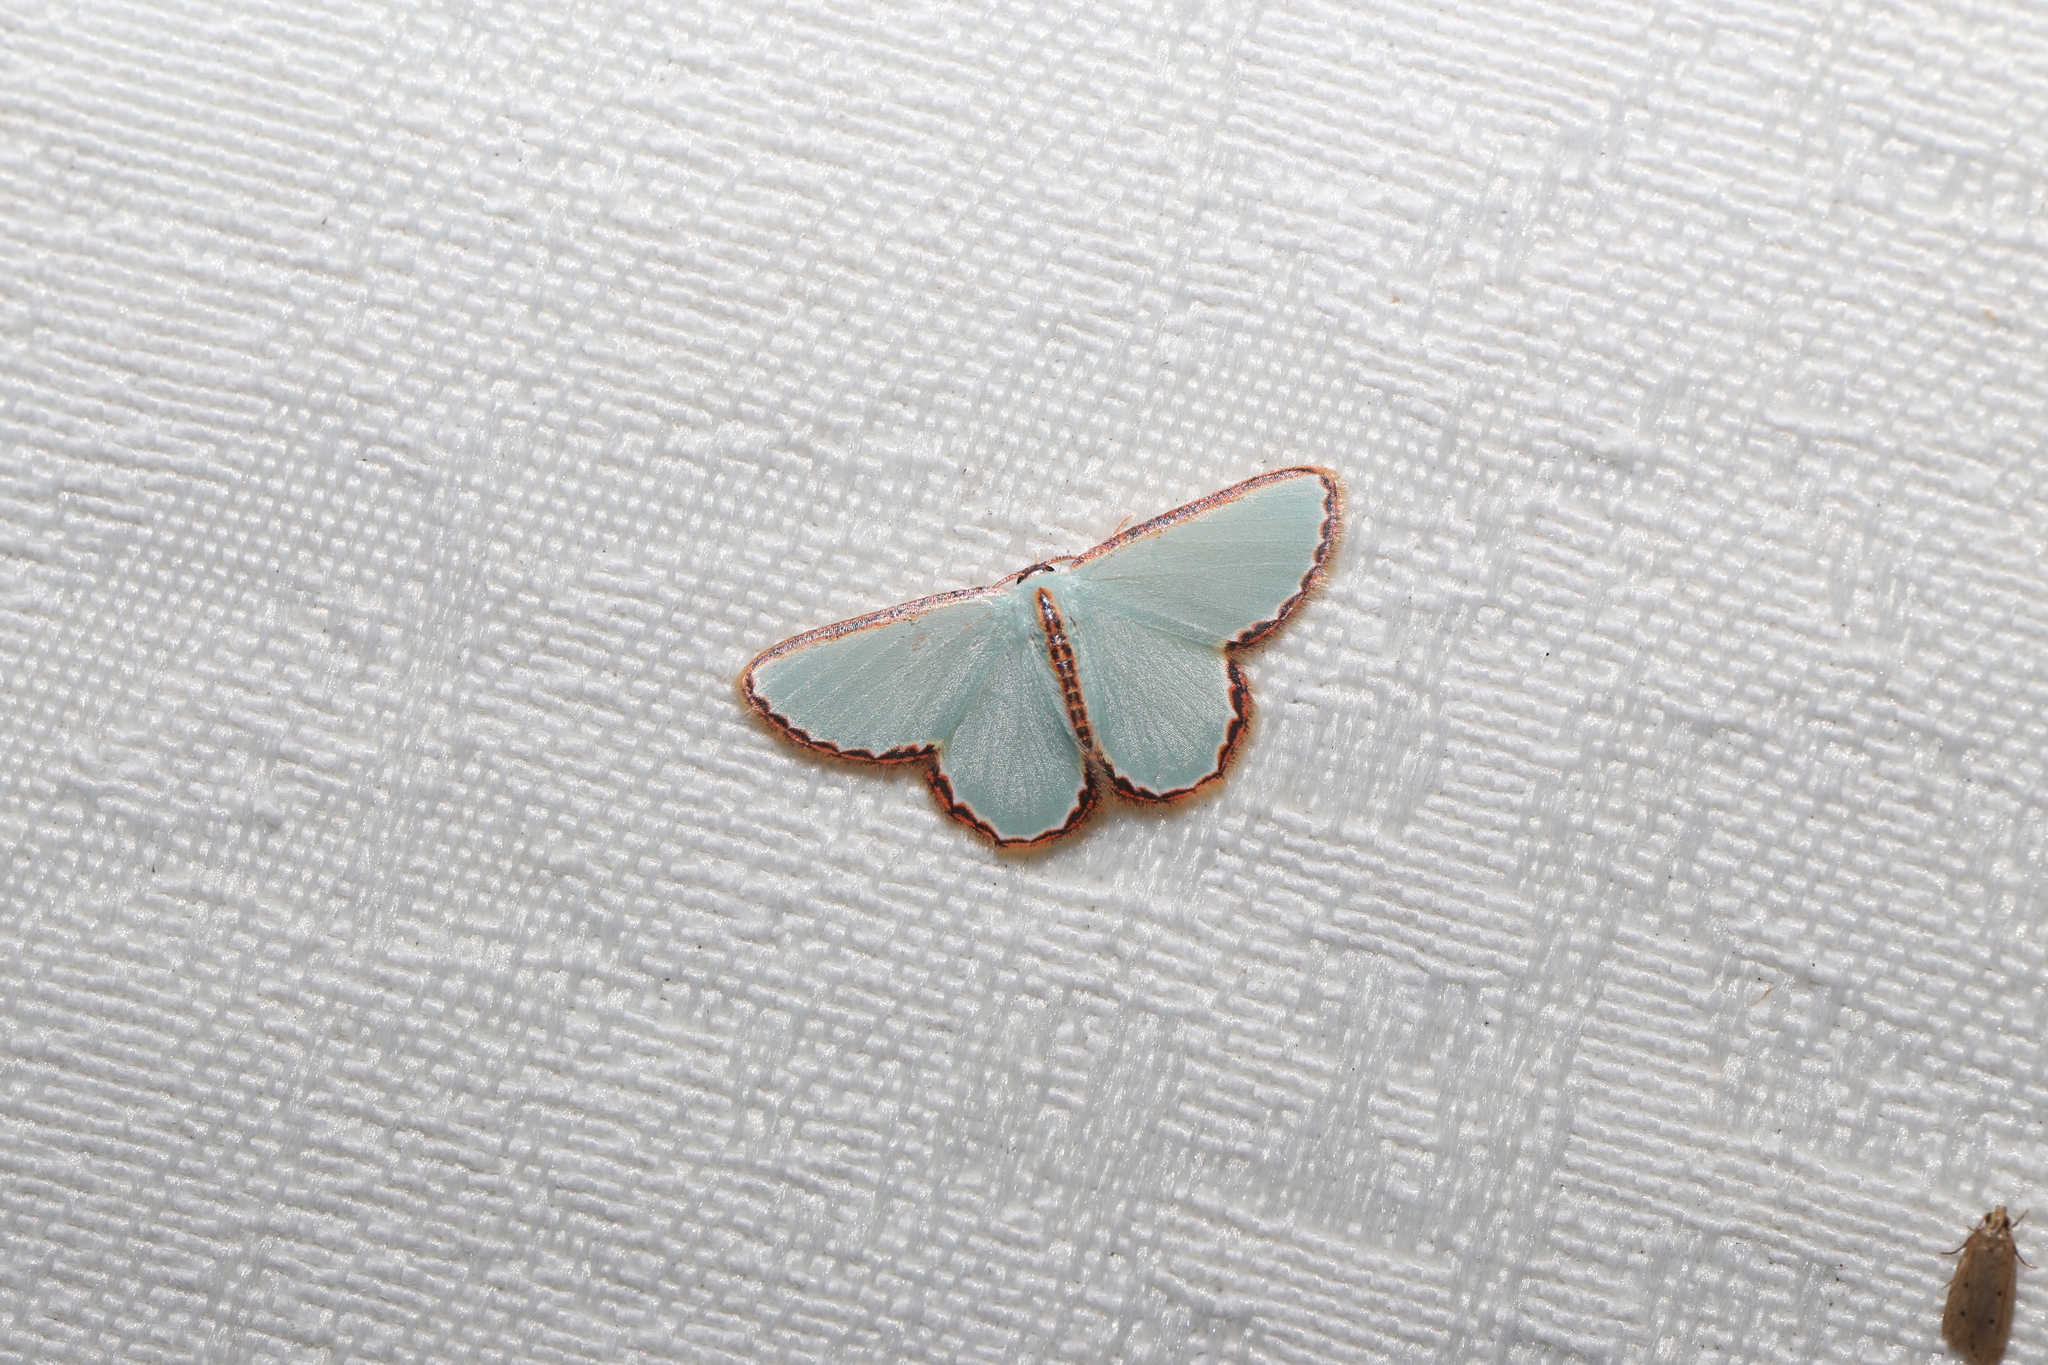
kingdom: Animalia
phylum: Arthropoda
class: Insecta
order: Lepidoptera
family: Geometridae
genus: Comostola
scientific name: Comostola pyrrhogona
